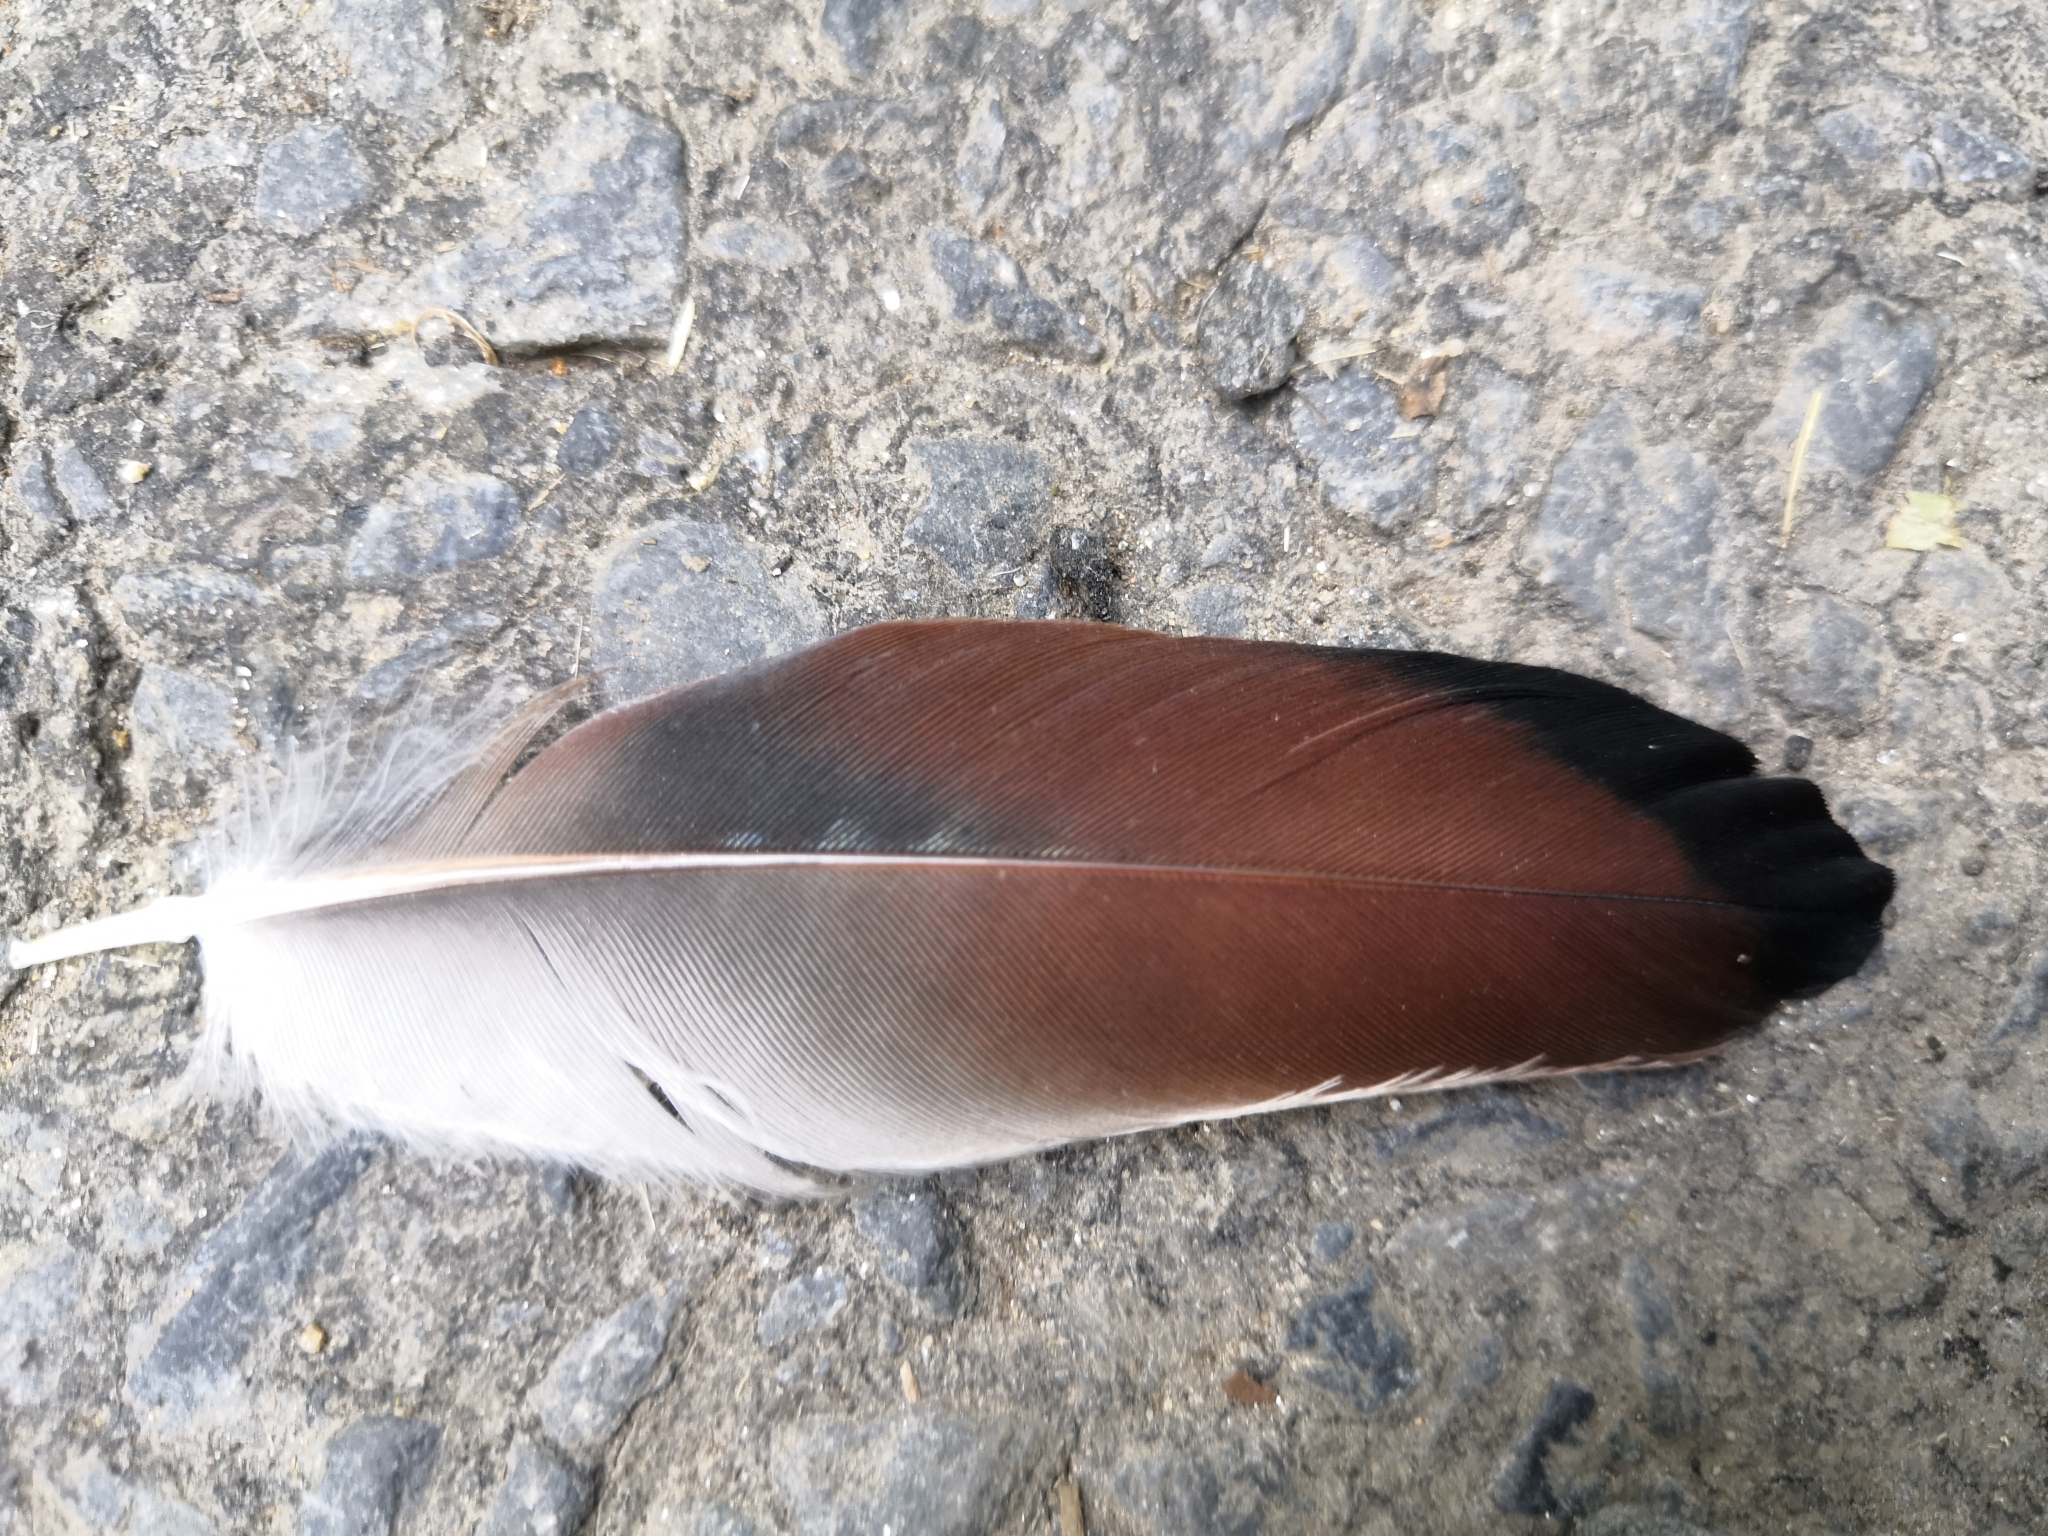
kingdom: Animalia
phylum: Chordata
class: Aves
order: Passeriformes
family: Corvidae
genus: Garrulus
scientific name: Garrulus glandarius
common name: Eurasian jay
